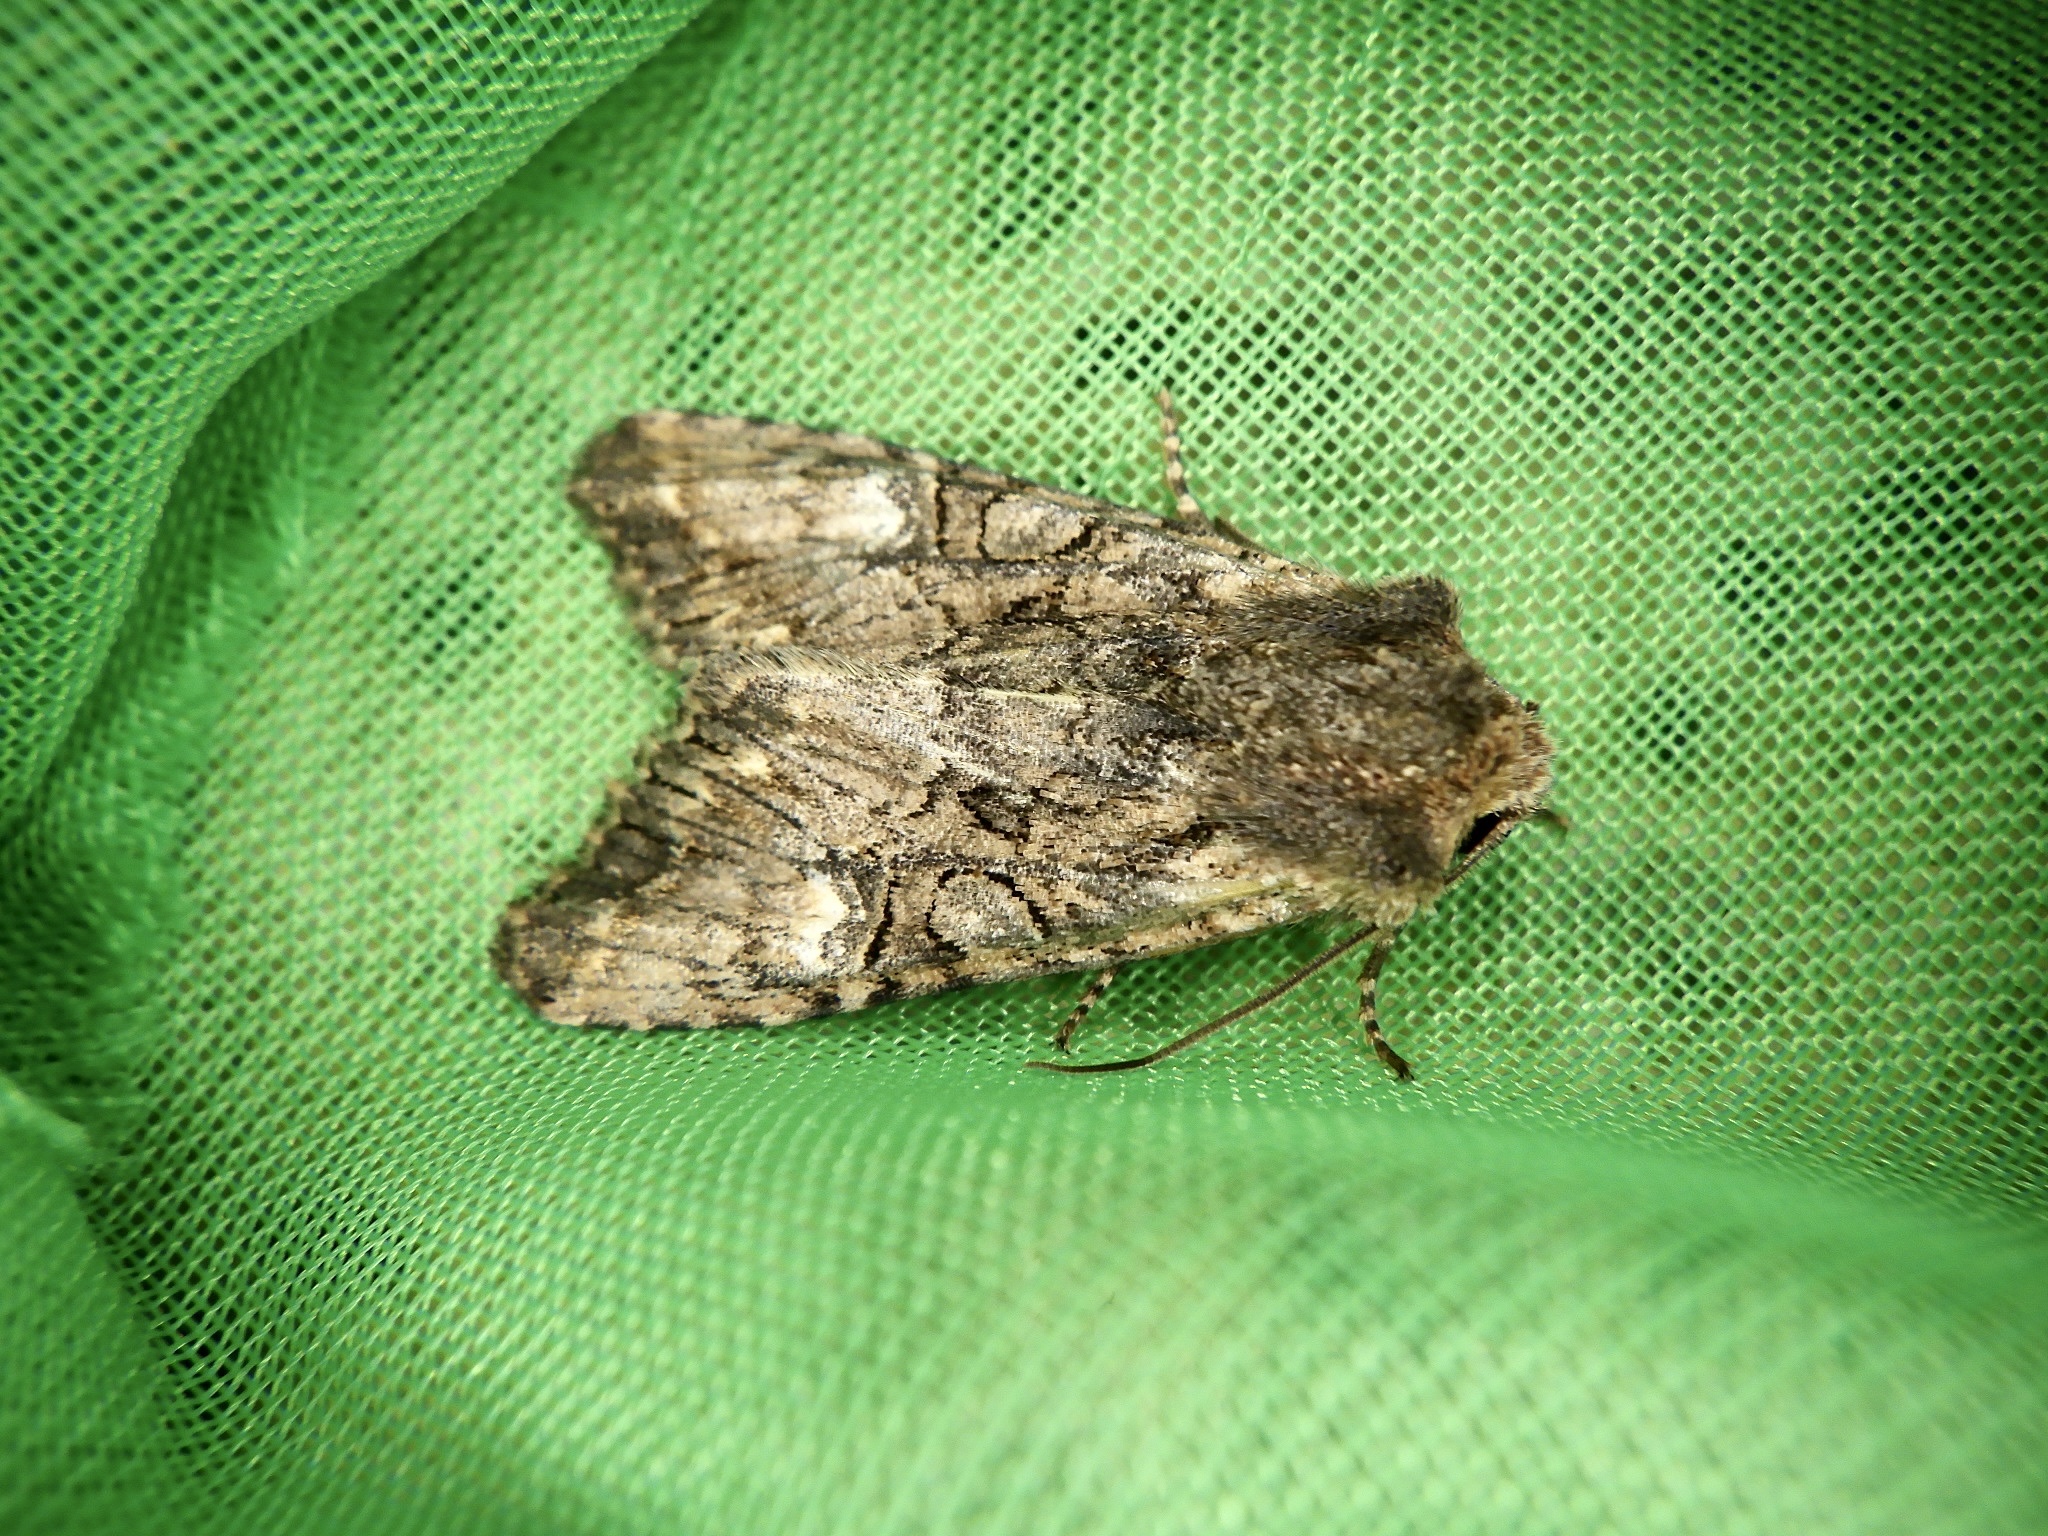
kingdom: Animalia
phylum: Arthropoda
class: Insecta
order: Lepidoptera
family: Noctuidae
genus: Nyctycia
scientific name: Nyctycia strigidisca
